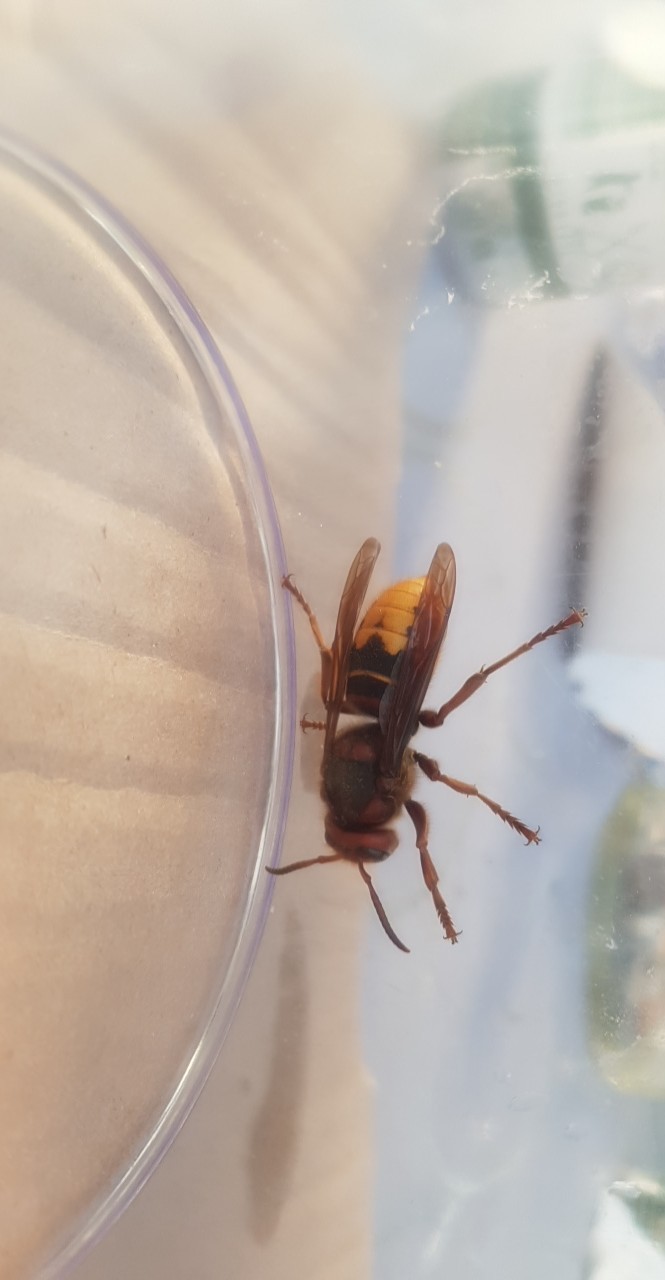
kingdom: Animalia
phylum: Arthropoda
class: Insecta
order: Hymenoptera
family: Vespidae
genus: Vespa
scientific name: Vespa crabro
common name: Hornet
